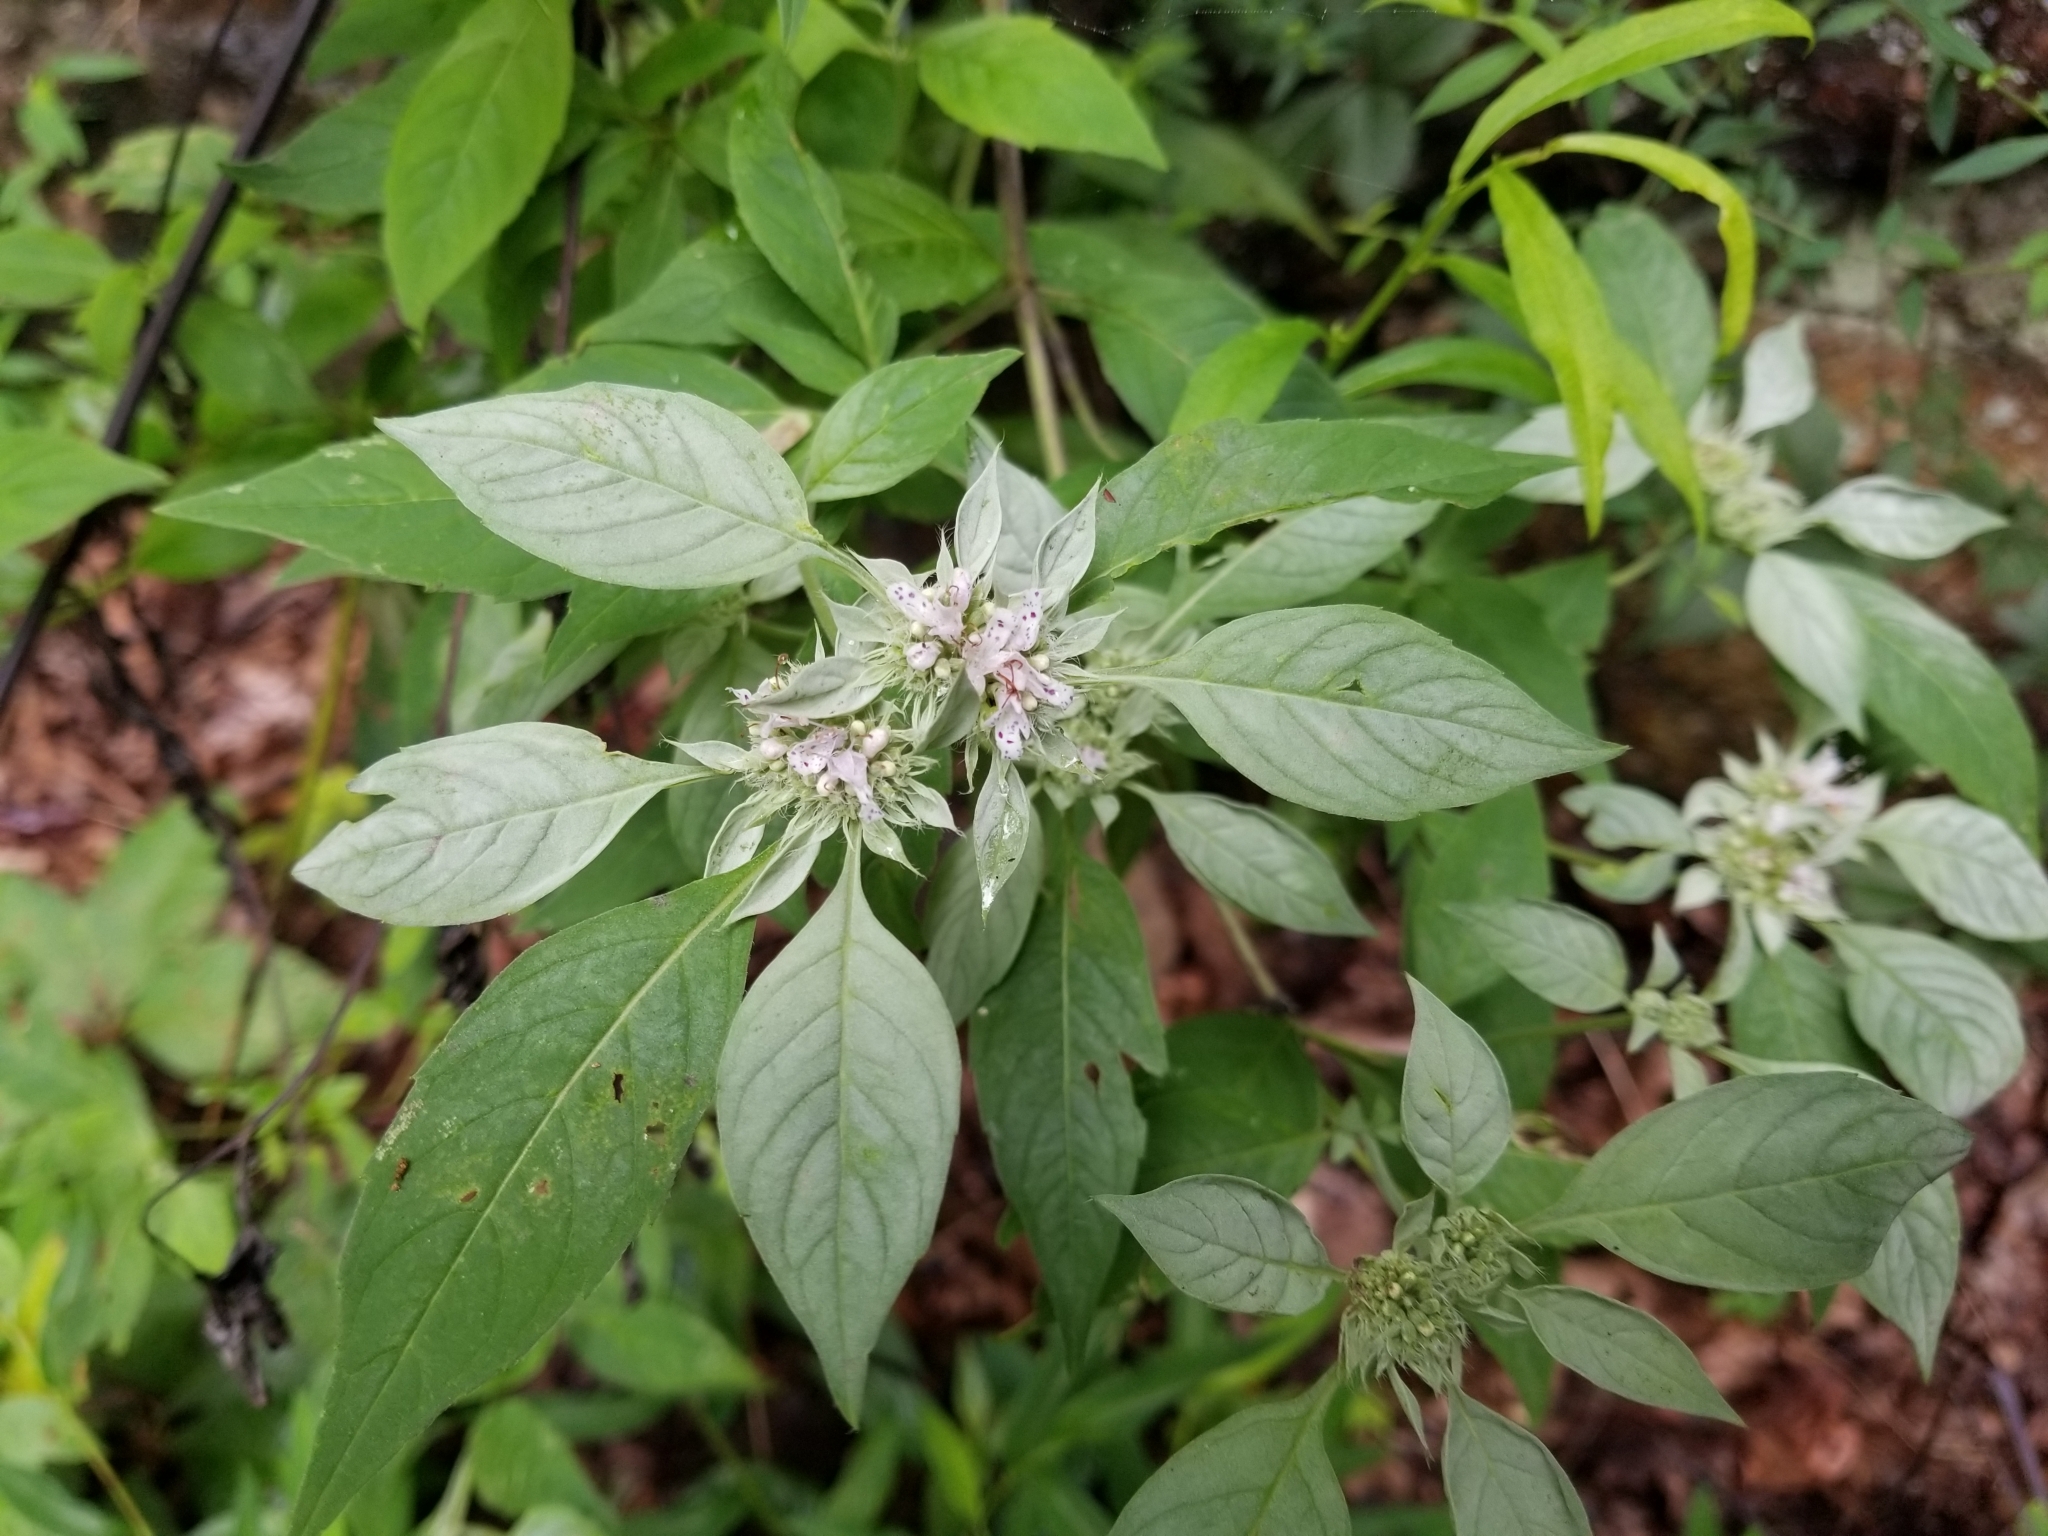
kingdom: Plantae
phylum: Tracheophyta
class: Magnoliopsida
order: Lamiales
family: Lamiaceae
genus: Pycnanthemum
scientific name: Pycnanthemum pycnanthemoides
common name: Southern mountain-mint
